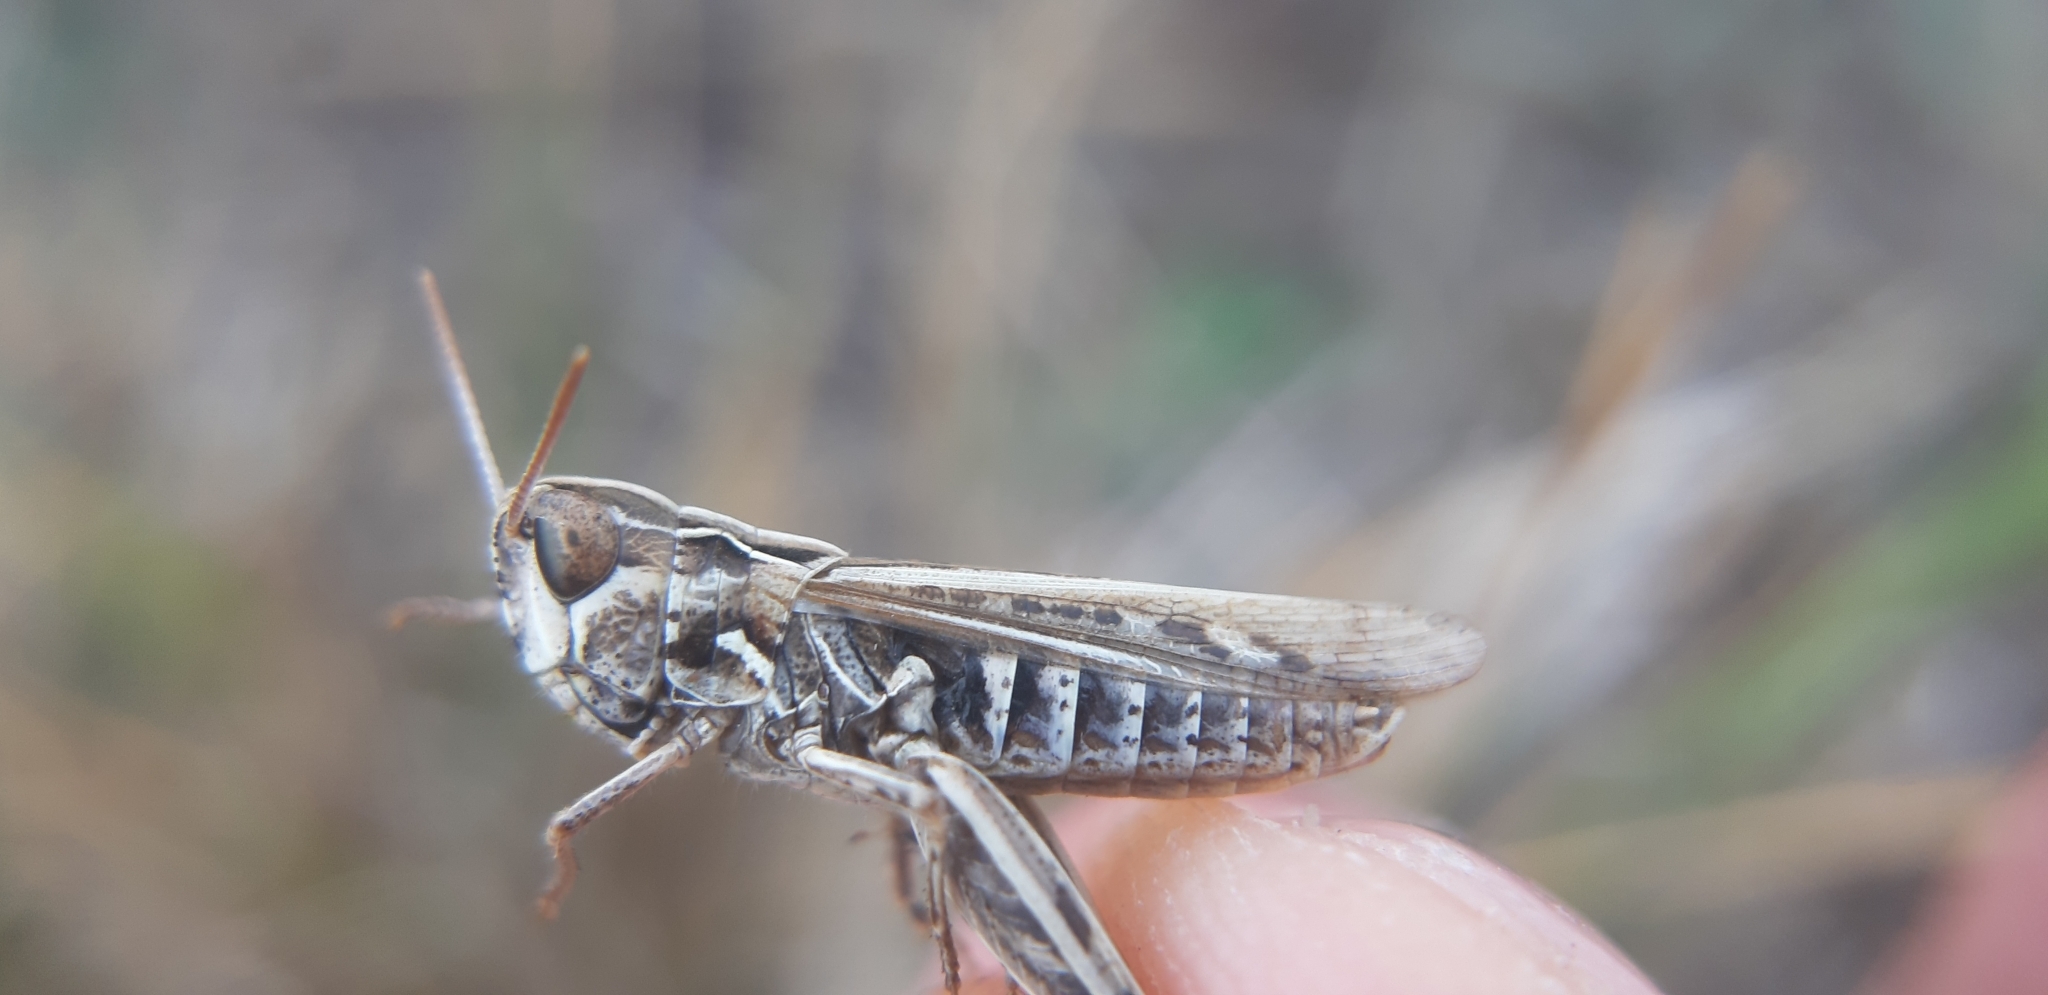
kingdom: Animalia
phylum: Arthropoda
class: Insecta
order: Orthoptera
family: Acrididae
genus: Omocestus
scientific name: Omocestus petraeus
